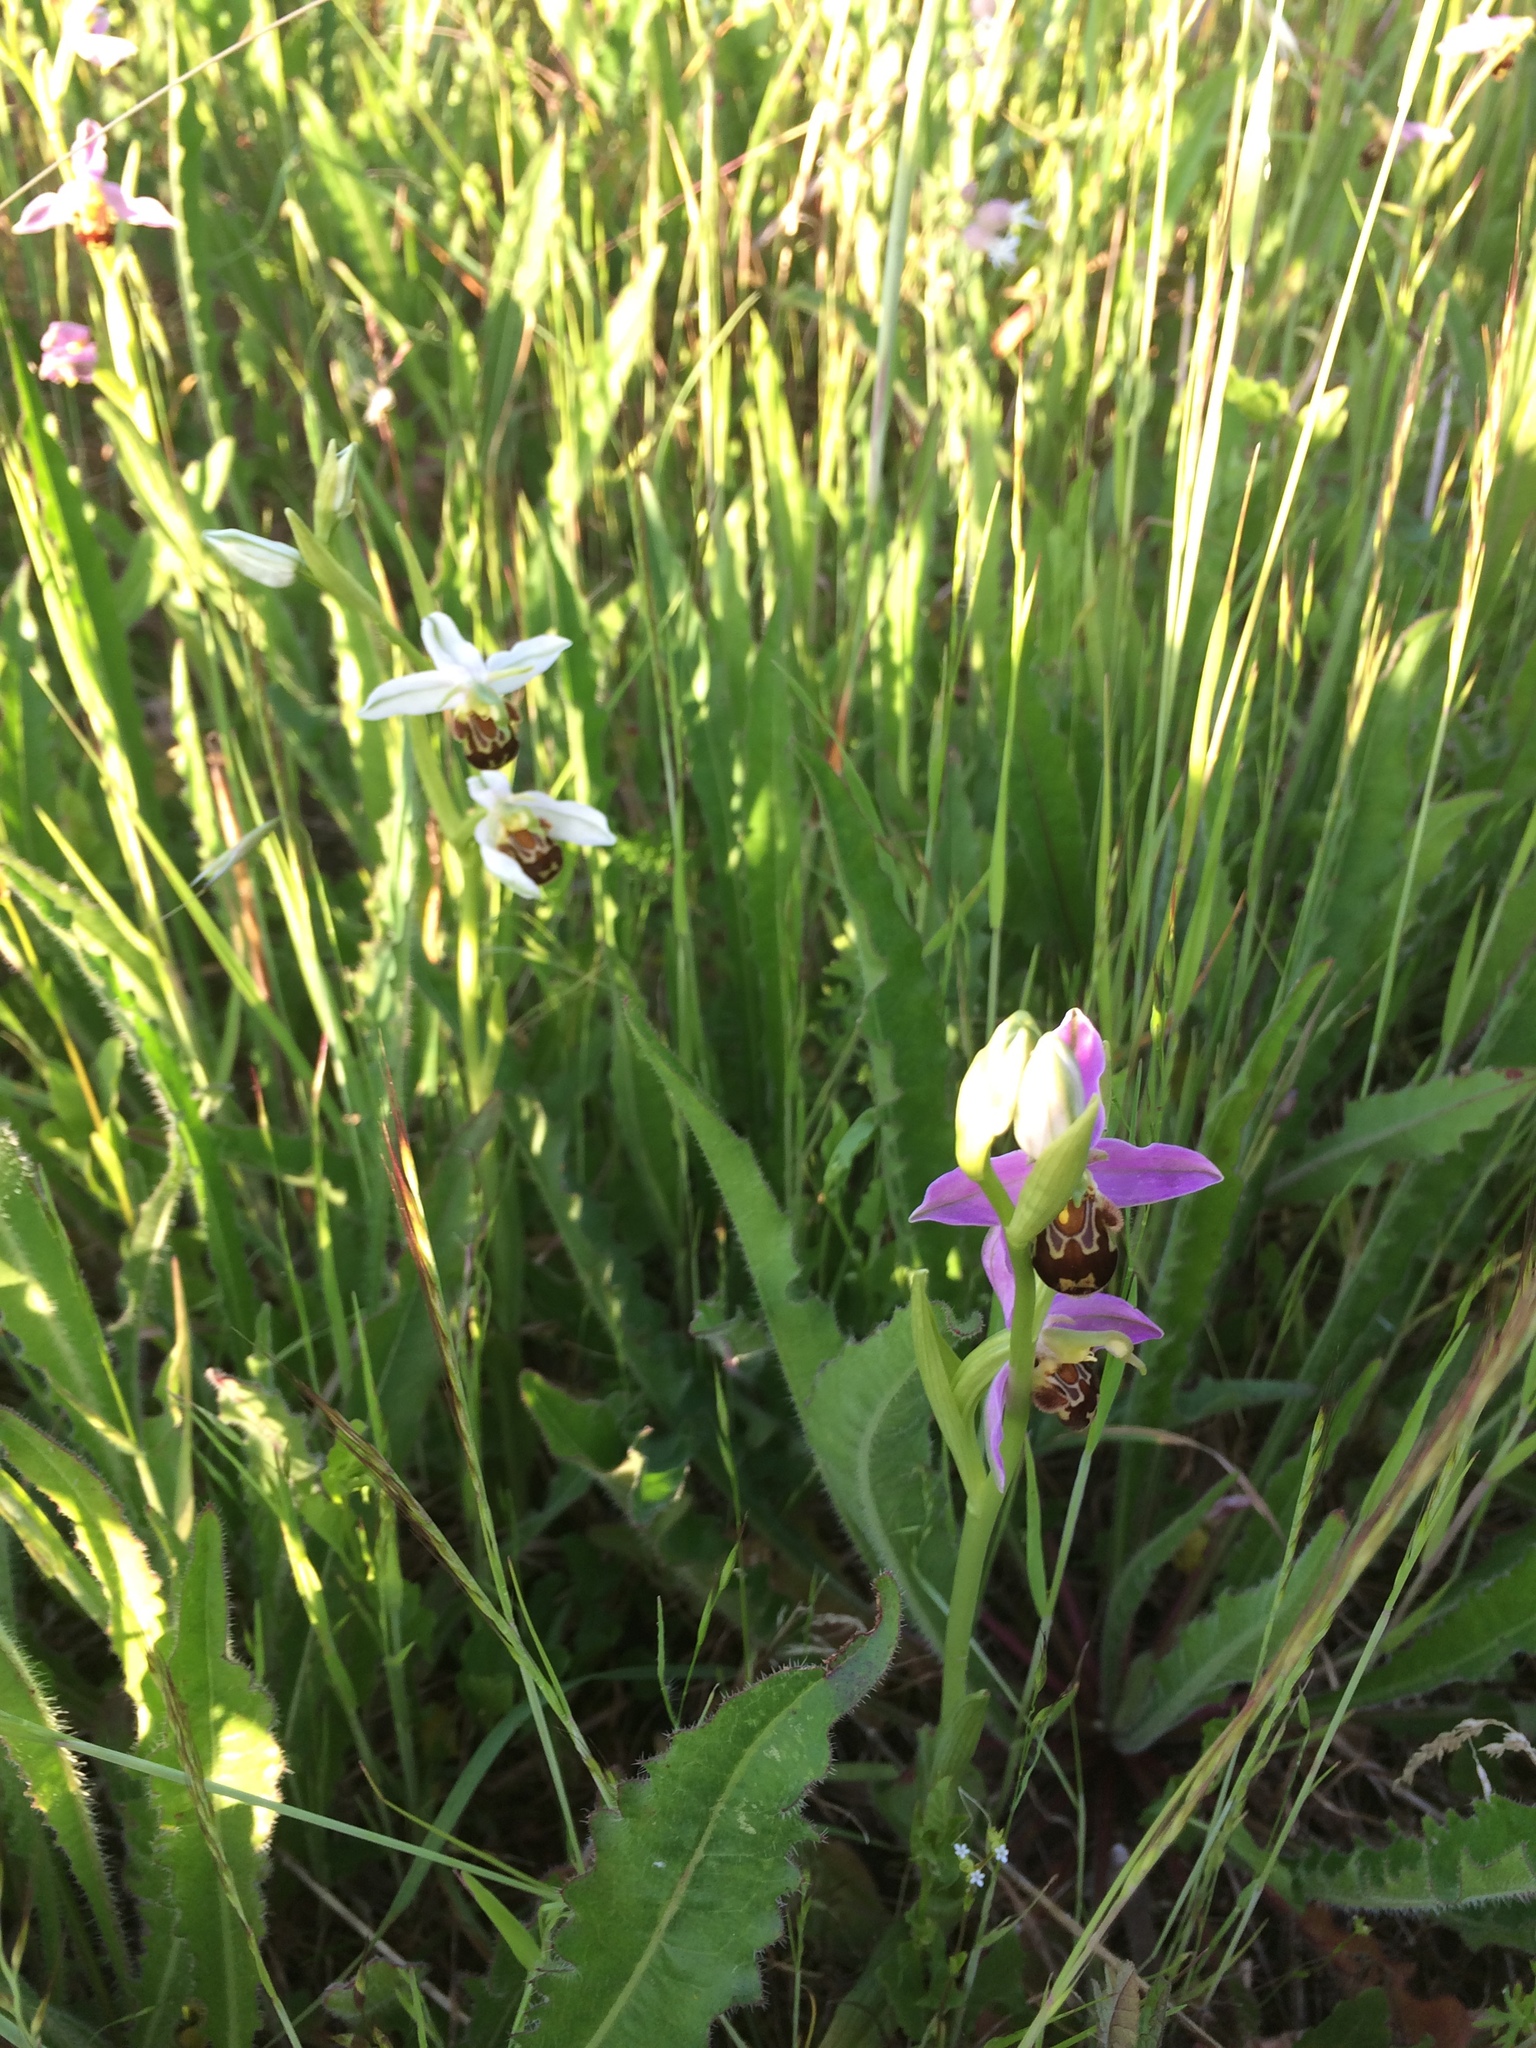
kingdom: Plantae
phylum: Tracheophyta
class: Liliopsida
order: Asparagales
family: Orchidaceae
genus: Ophrys
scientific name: Ophrys apifera
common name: Bee orchid
